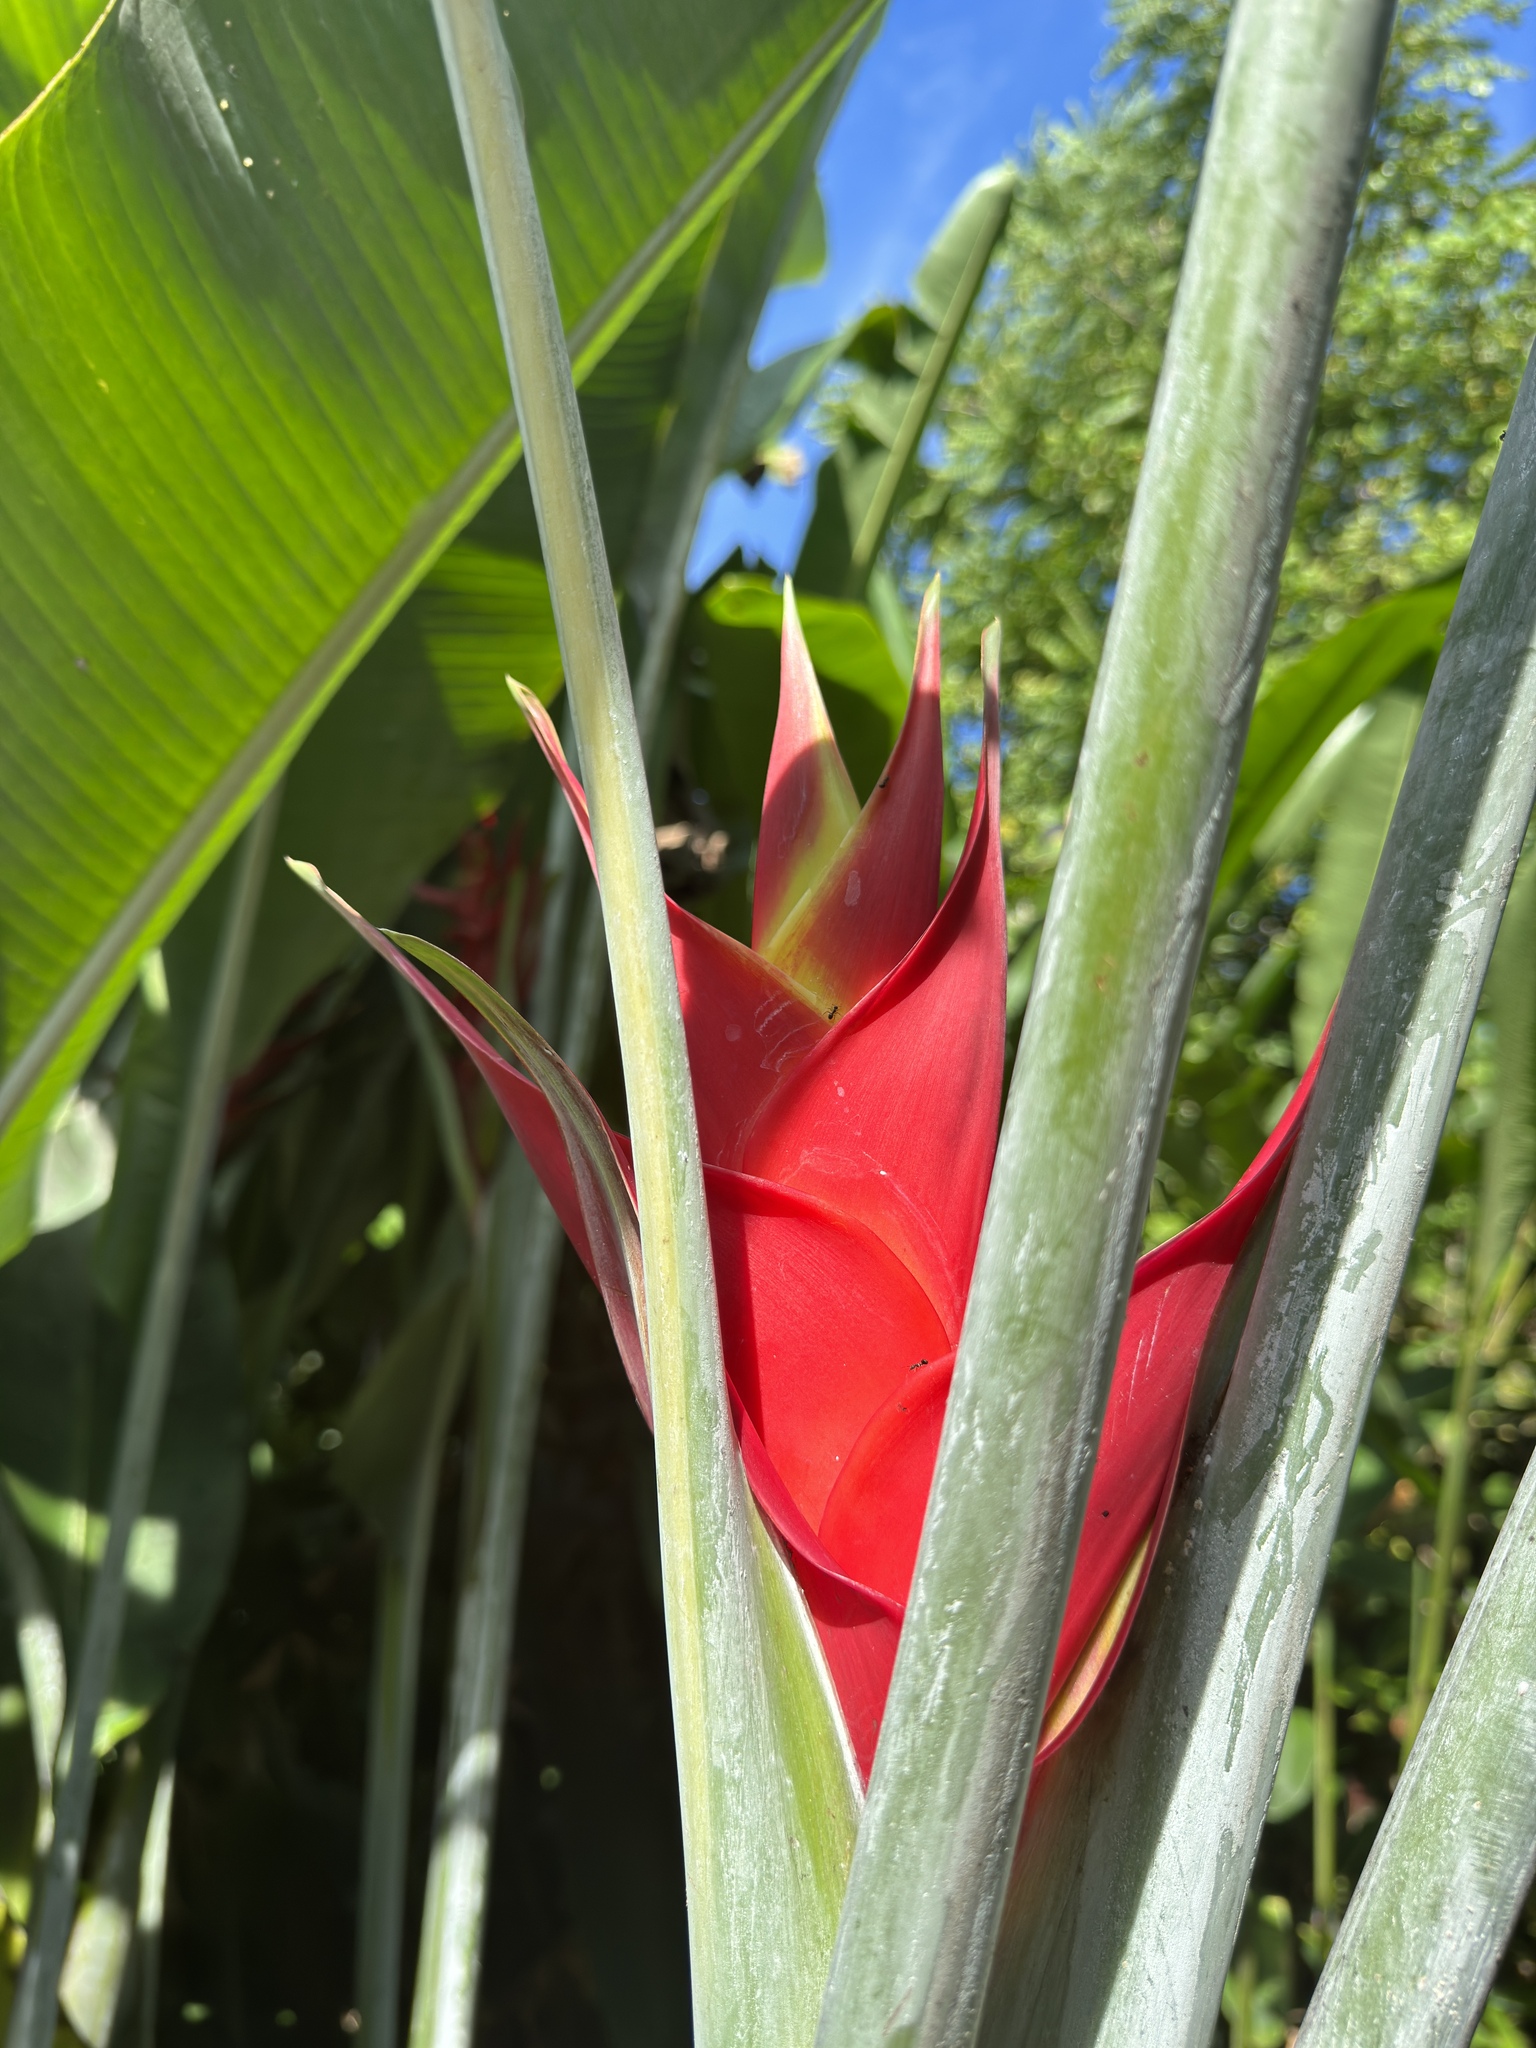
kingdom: Plantae
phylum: Tracheophyta
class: Liliopsida
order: Zingiberales
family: Heliconiaceae
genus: Heliconia
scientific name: Heliconia caribaea
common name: Wild plantain
